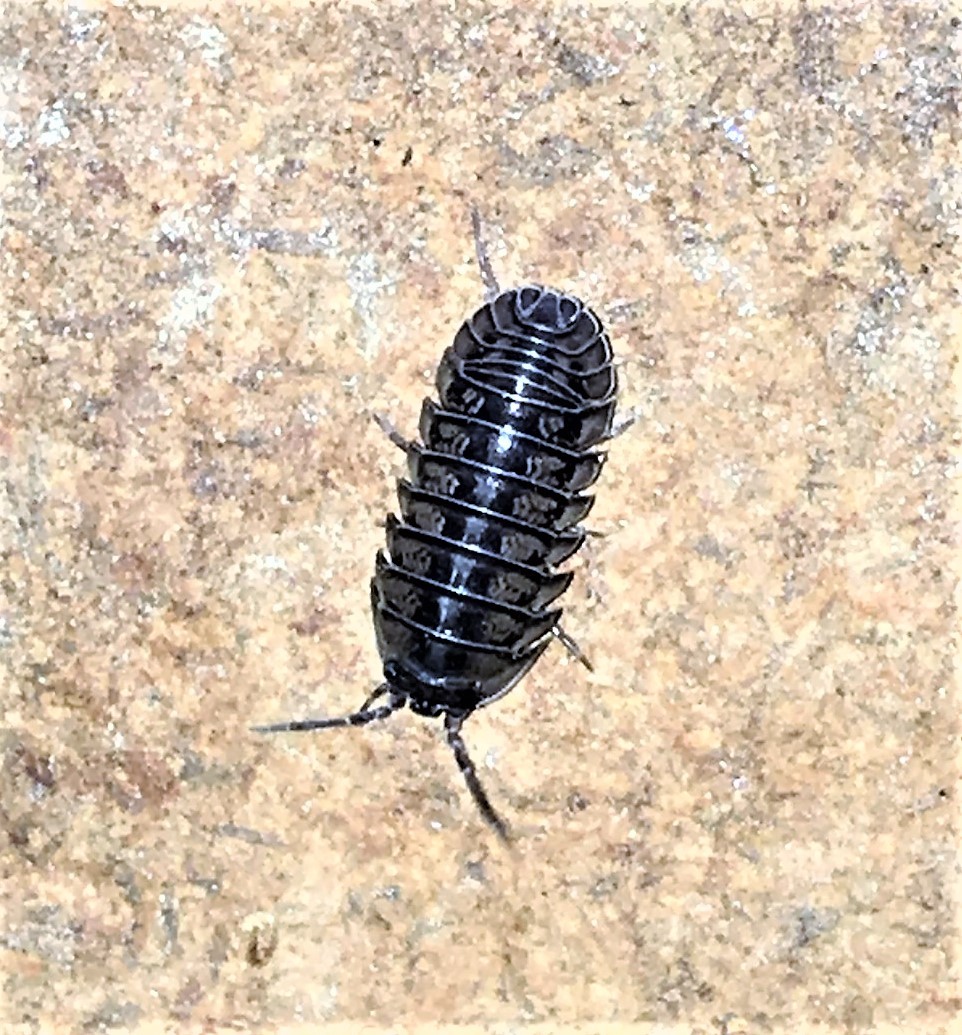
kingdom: Animalia
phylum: Arthropoda
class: Malacostraca
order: Isopoda
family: Armadillidiidae
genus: Armadillidium
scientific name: Armadillidium nasatum
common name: Isopod
